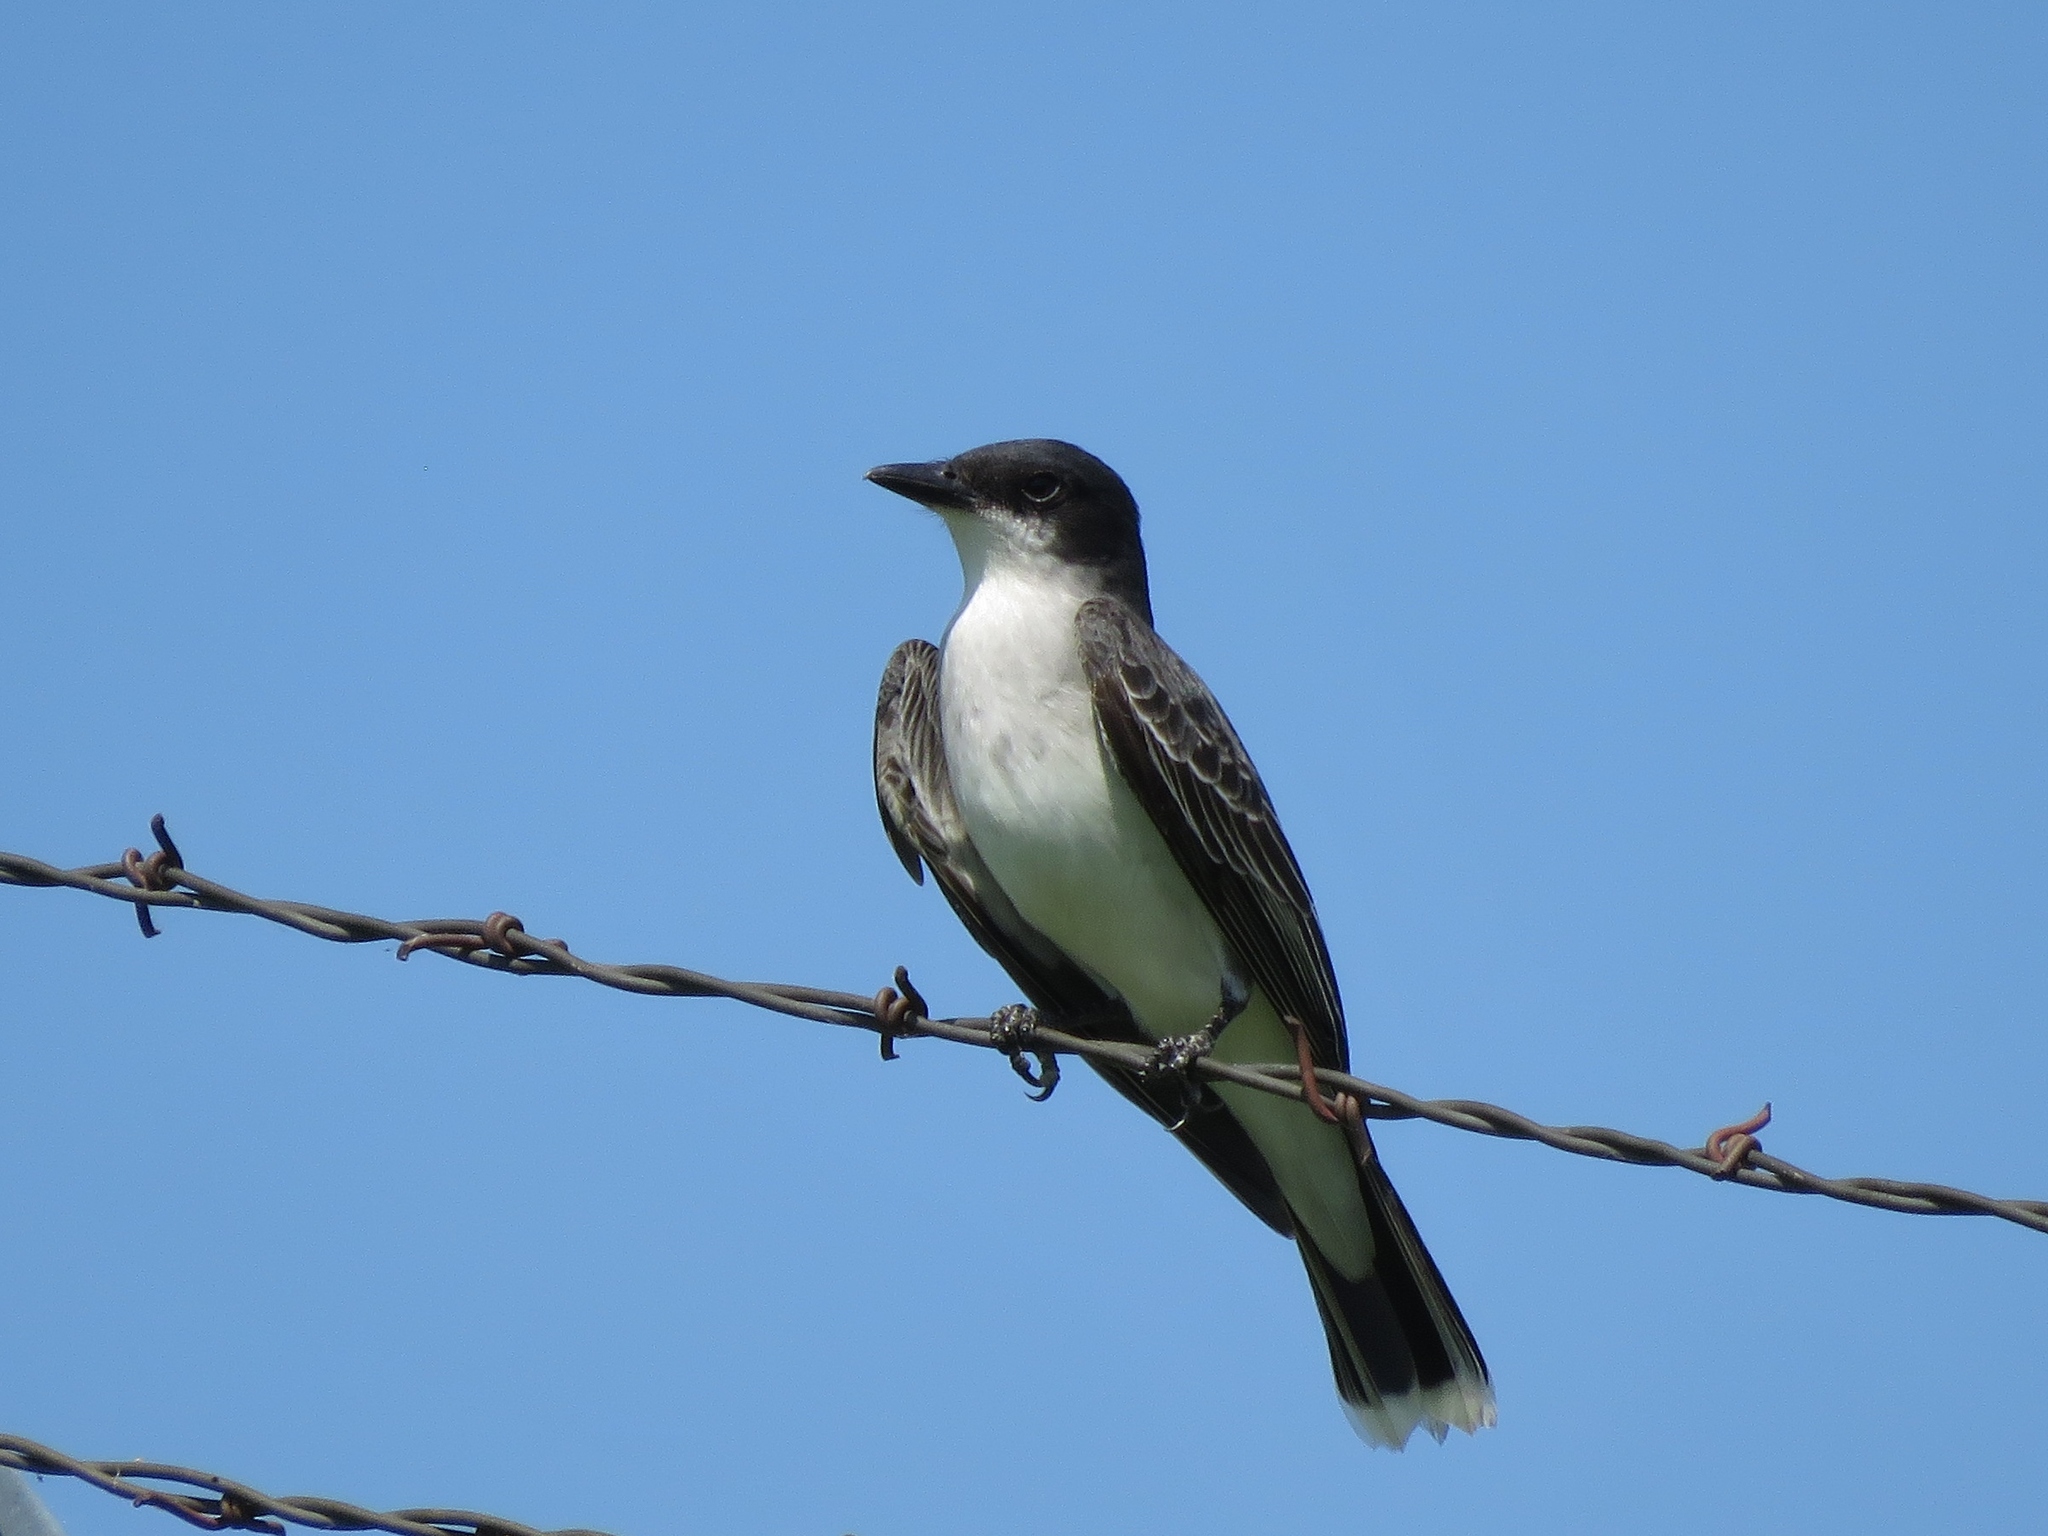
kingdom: Animalia
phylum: Chordata
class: Aves
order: Passeriformes
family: Tyrannidae
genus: Tyrannus
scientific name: Tyrannus tyrannus
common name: Eastern kingbird
